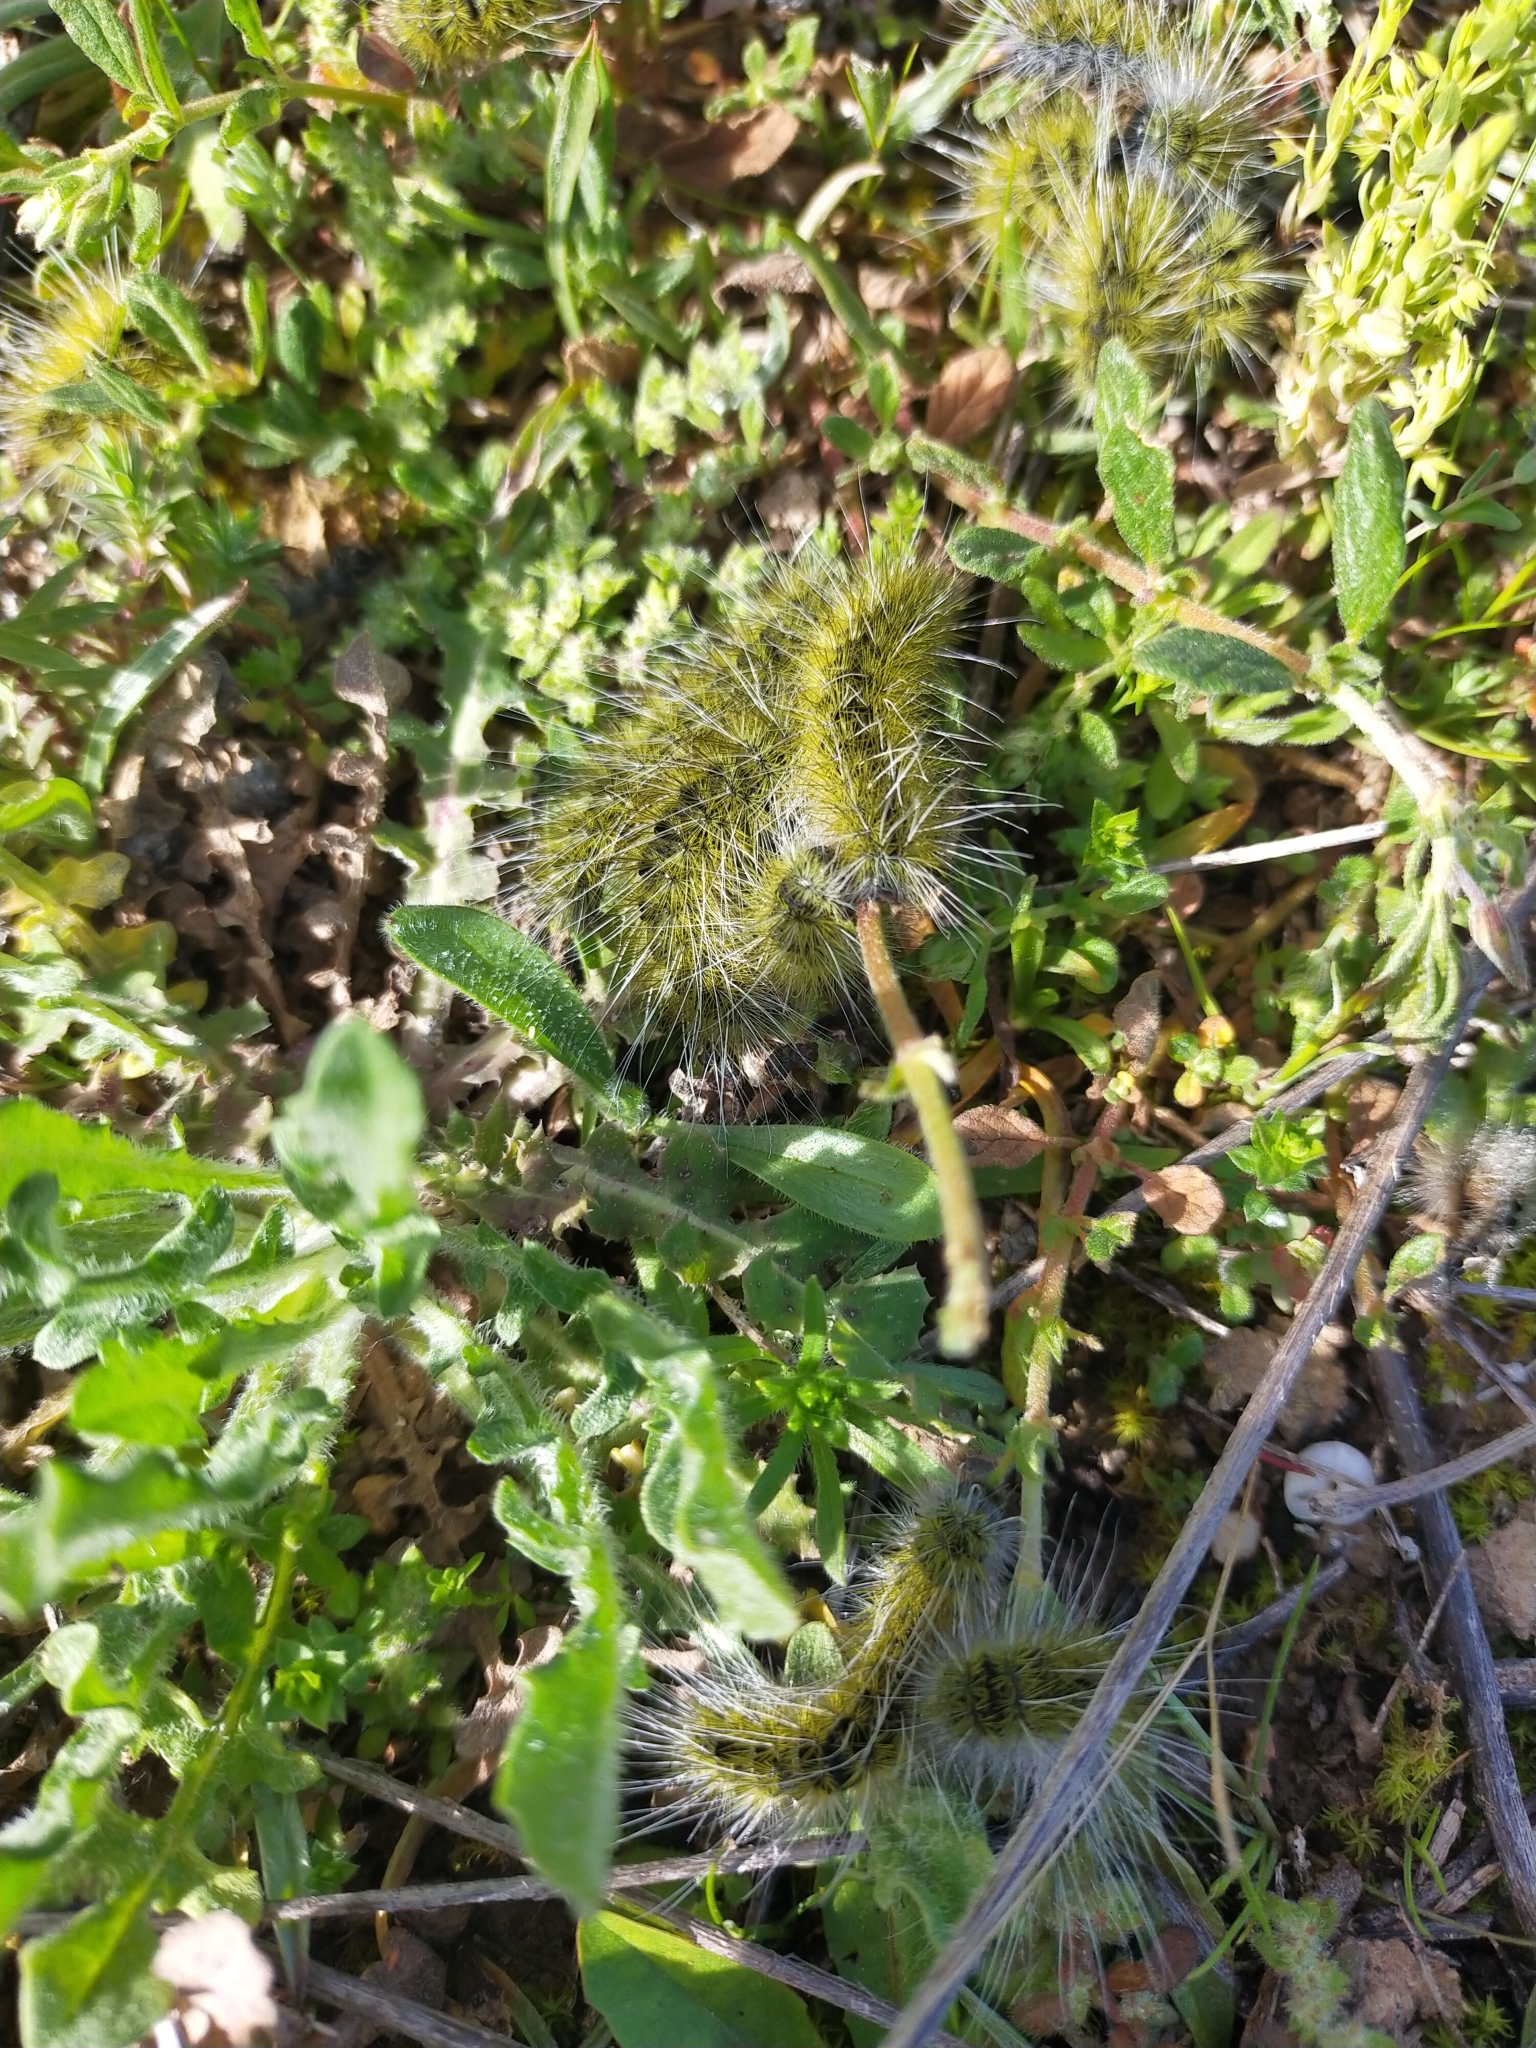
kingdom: Animalia
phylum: Arthropoda
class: Insecta
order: Lepidoptera
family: Notodontidae
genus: Thaumetopoea
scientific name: Thaumetopoea herculeana
